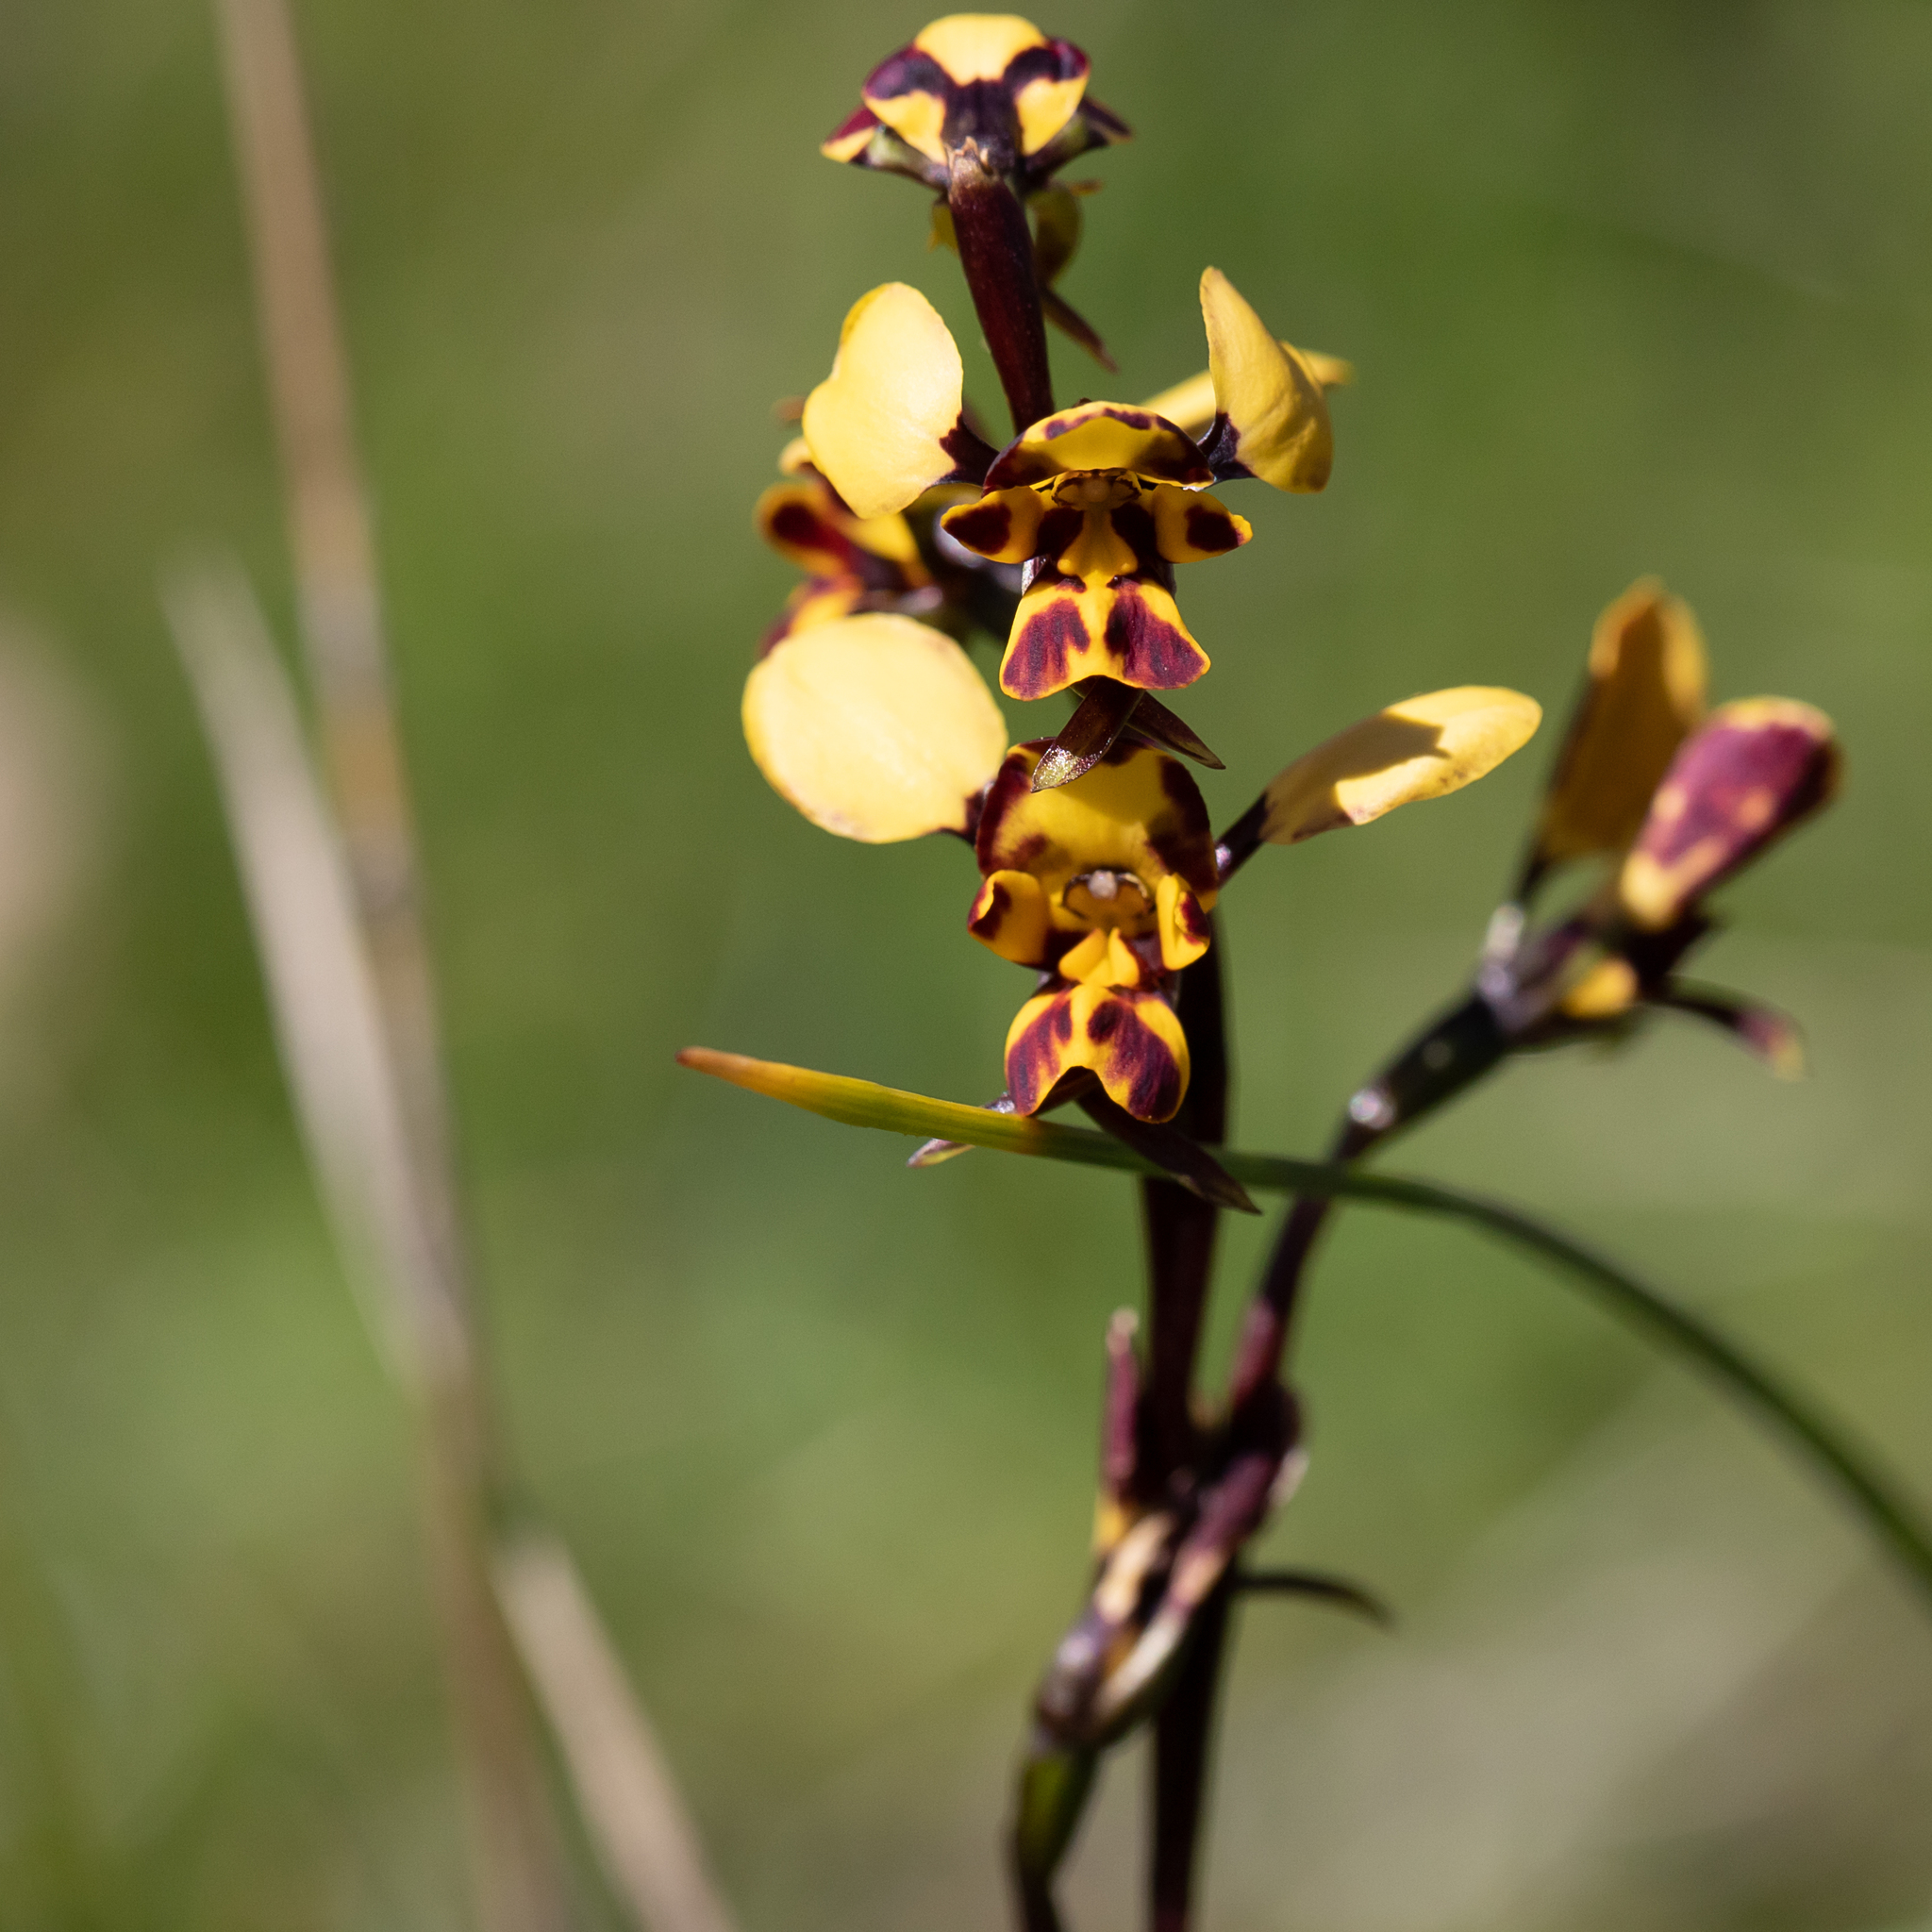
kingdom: Plantae
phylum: Tracheophyta
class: Liliopsida
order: Asparagales
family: Orchidaceae
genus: Diuris
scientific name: Diuris pardina
